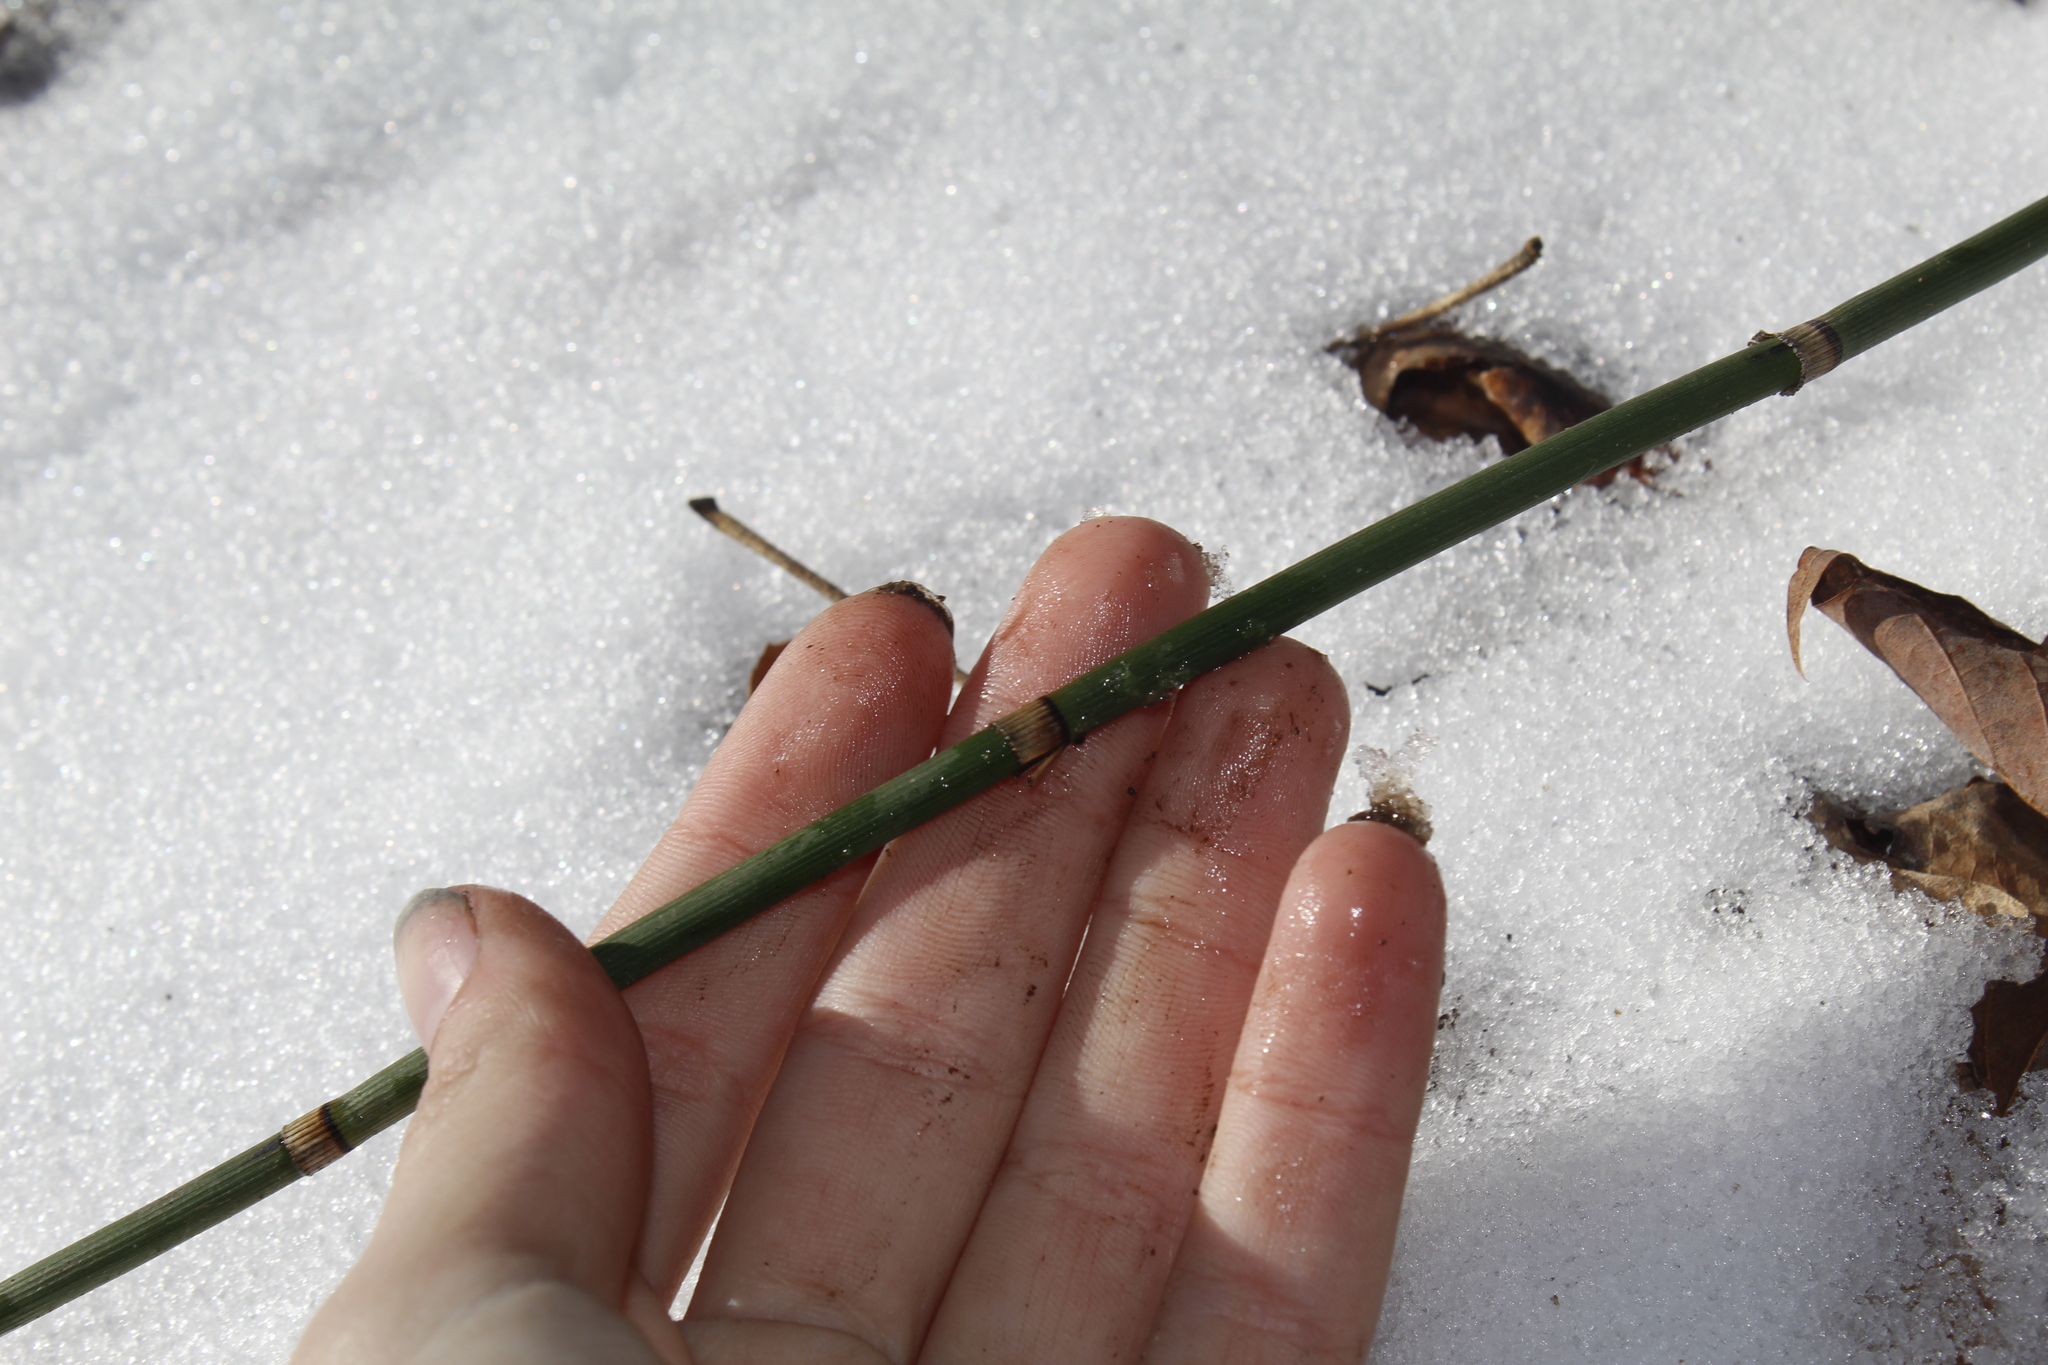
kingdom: Plantae
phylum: Tracheophyta
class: Polypodiopsida
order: Equisetales
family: Equisetaceae
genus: Equisetum
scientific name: Equisetum praealtum
